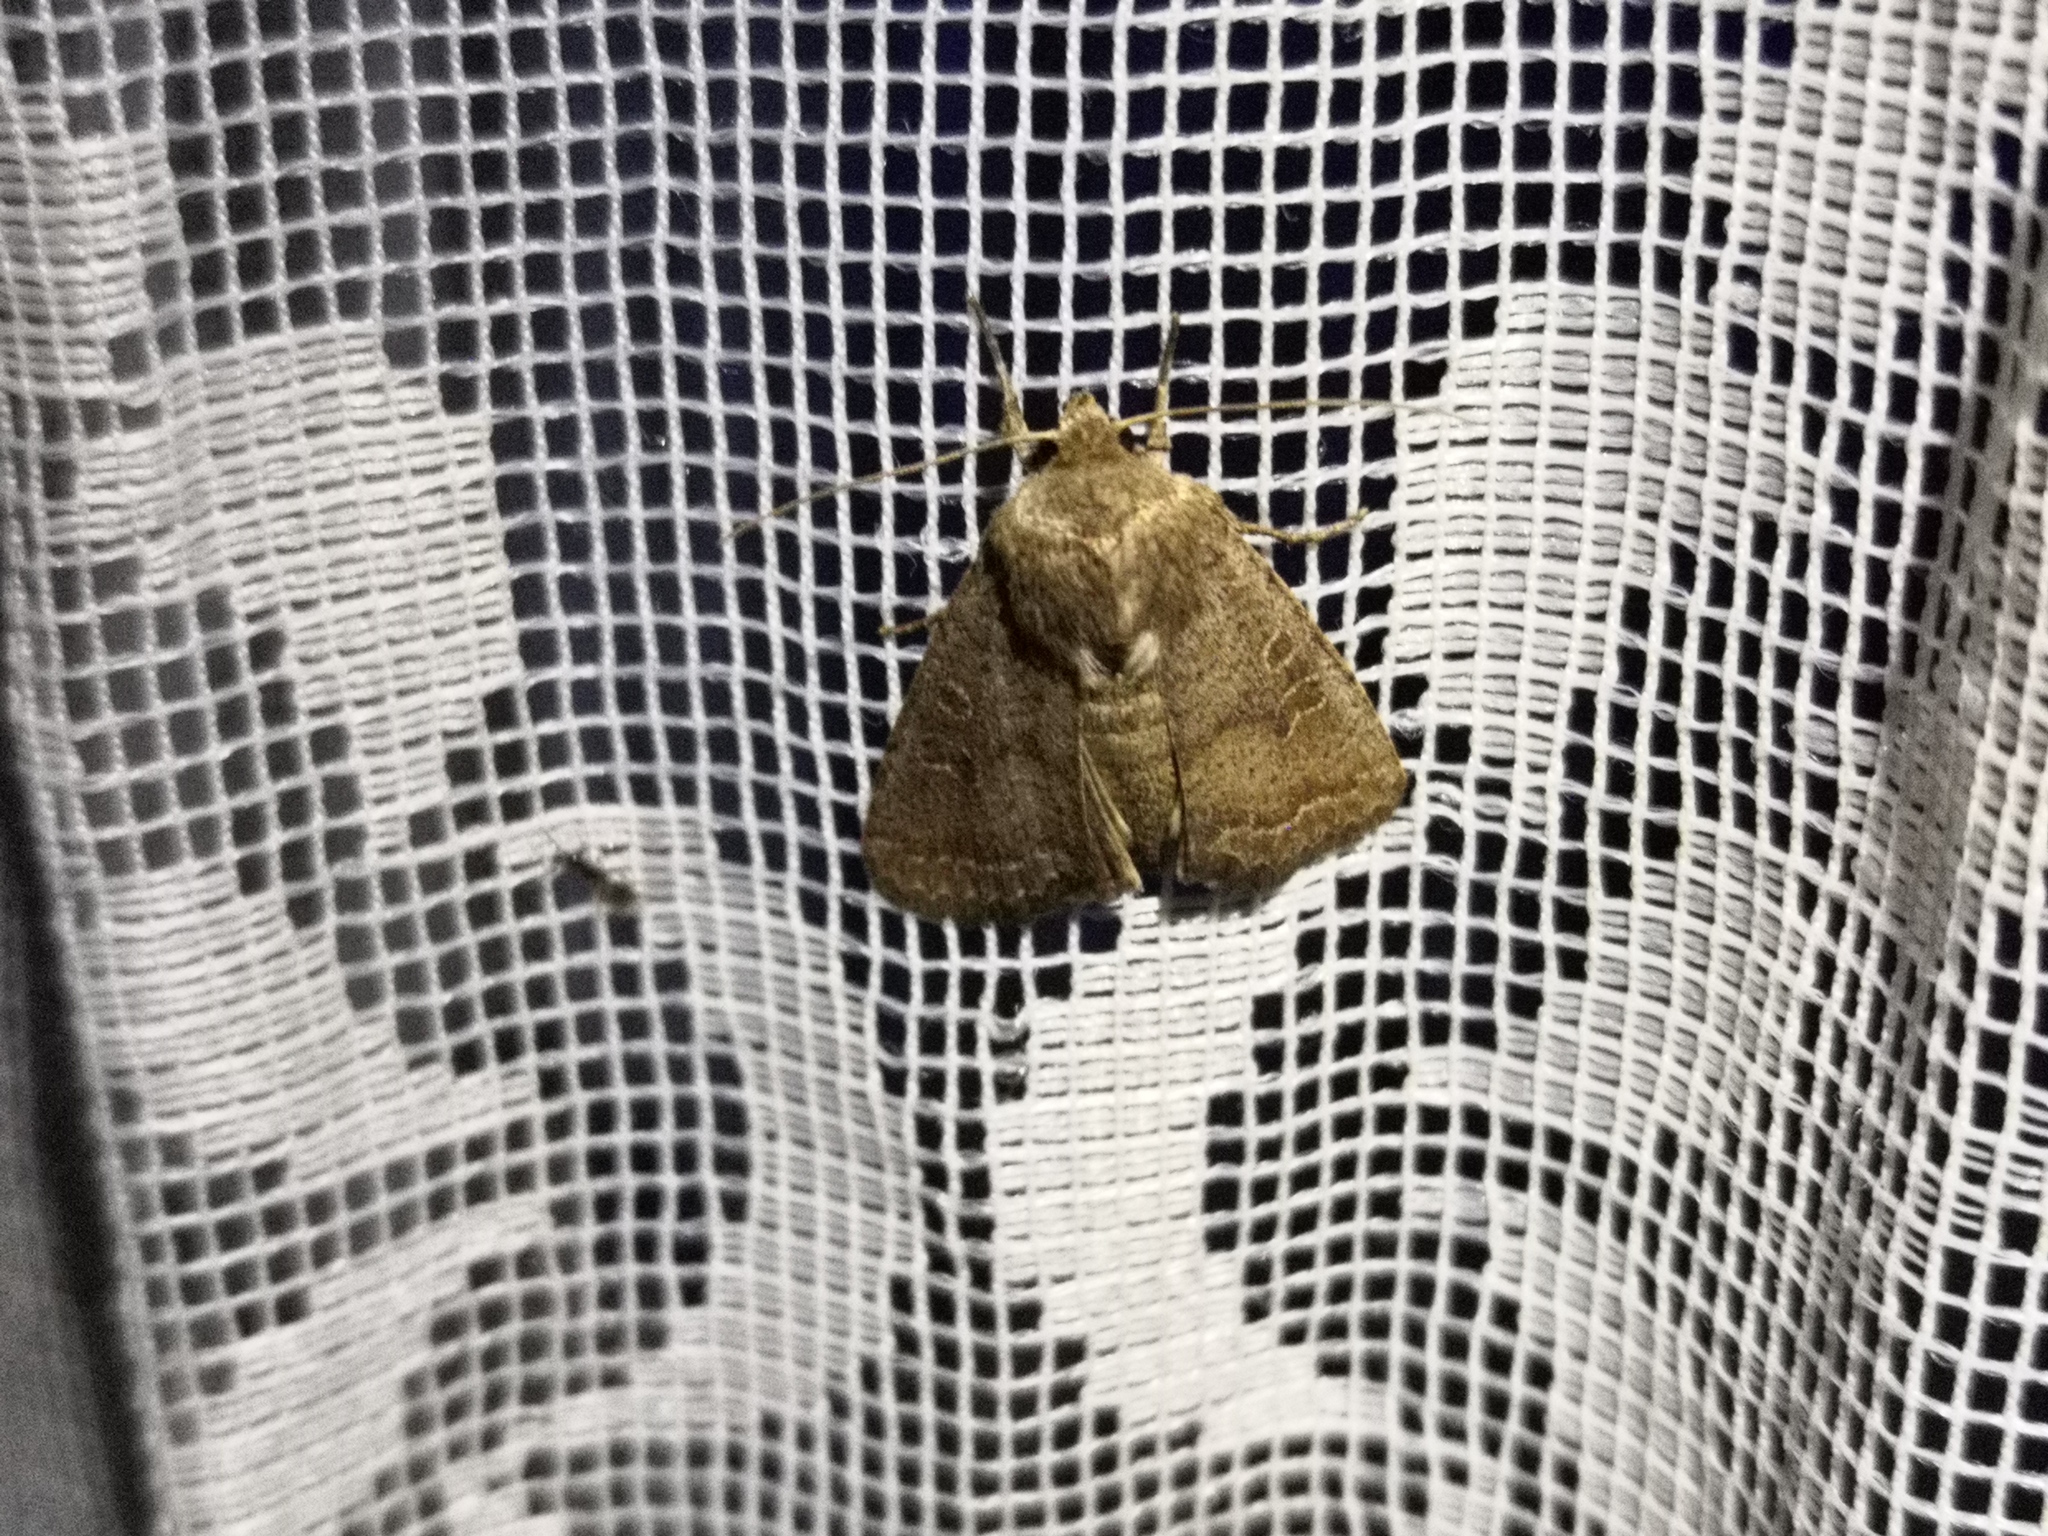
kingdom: Animalia
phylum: Arthropoda
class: Insecta
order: Lepidoptera
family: Noctuidae
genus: Hoplodrina
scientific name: Hoplodrina blanda
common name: Rustic
